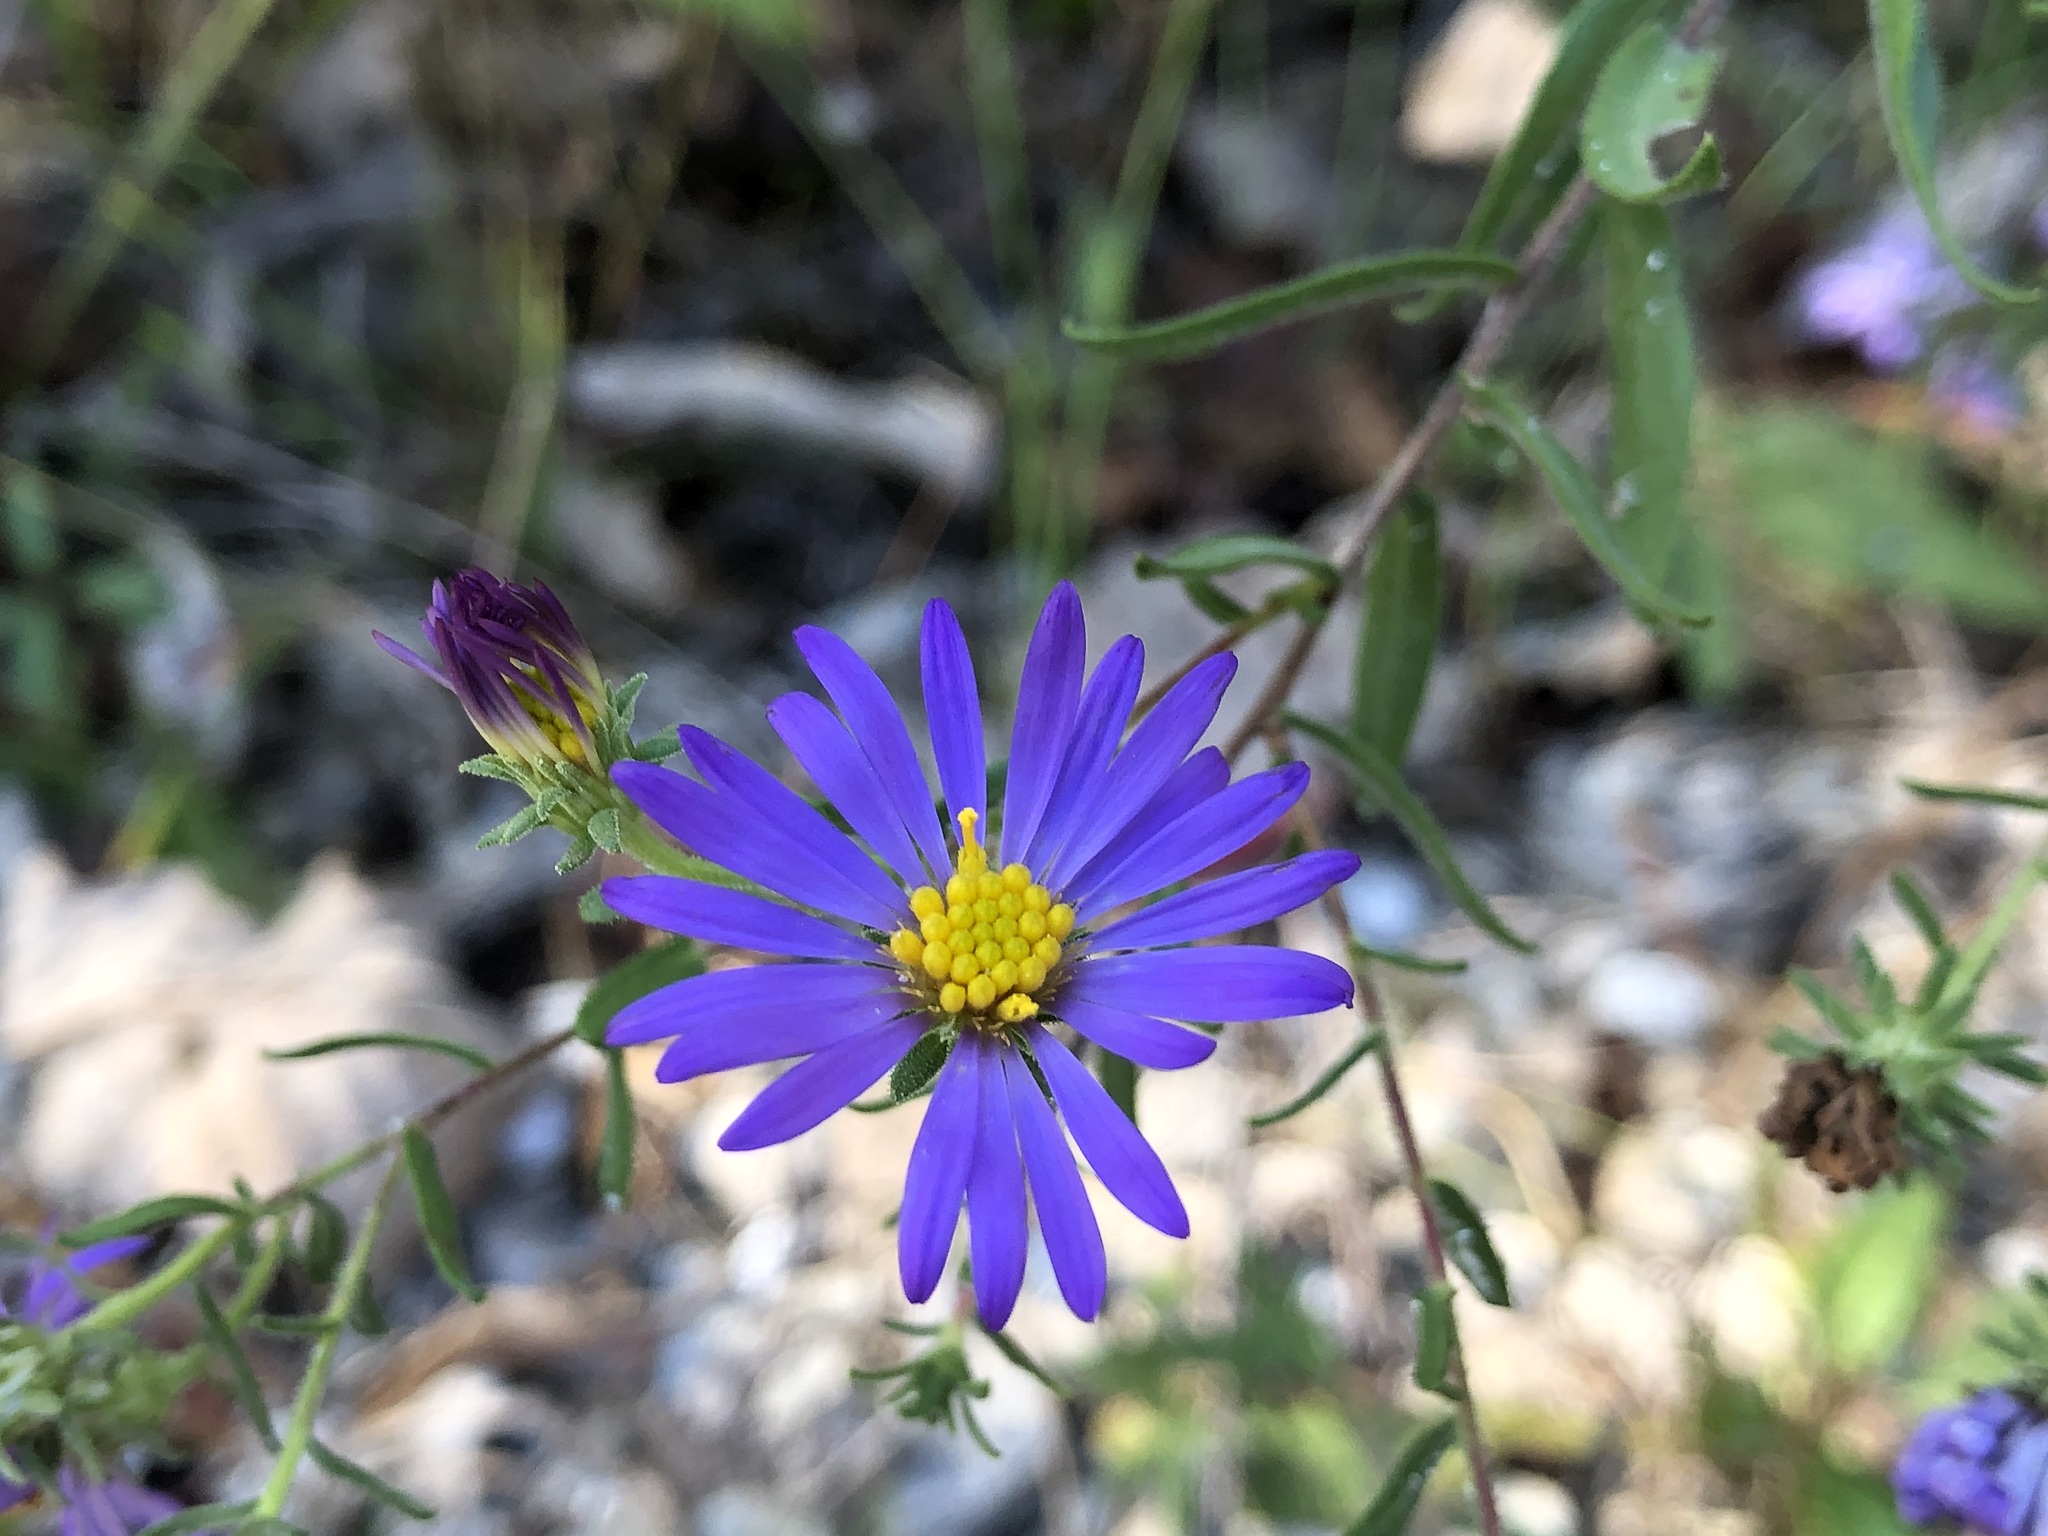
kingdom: Plantae
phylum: Tracheophyta
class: Magnoliopsida
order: Asterales
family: Asteraceae
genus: Symphyotrichum
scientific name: Symphyotrichum oblongifolium
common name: Aromatic aster
